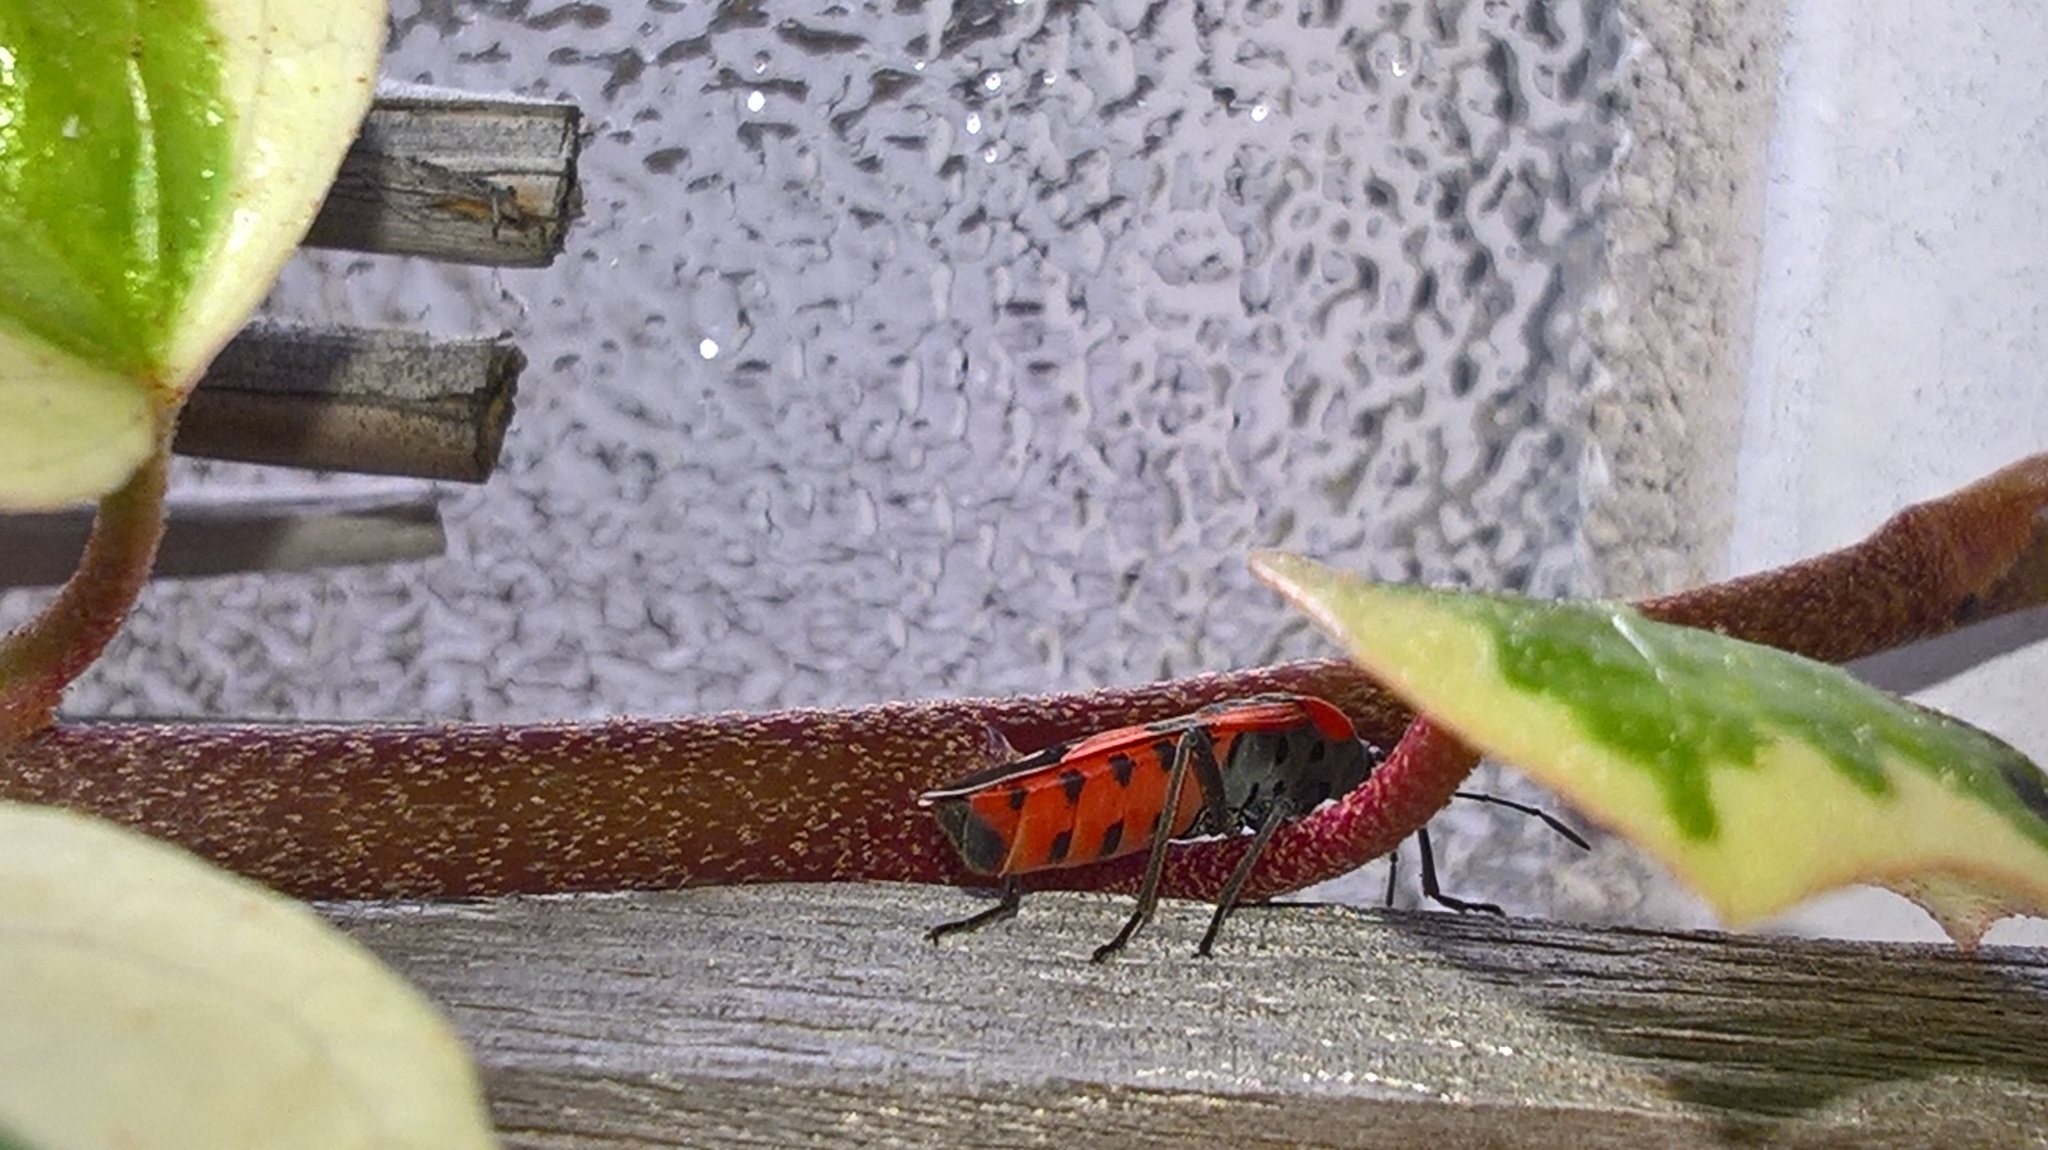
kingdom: Animalia
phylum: Arthropoda
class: Insecta
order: Hemiptera
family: Lygaeidae
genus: Lygaeus
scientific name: Lygaeus equestris
